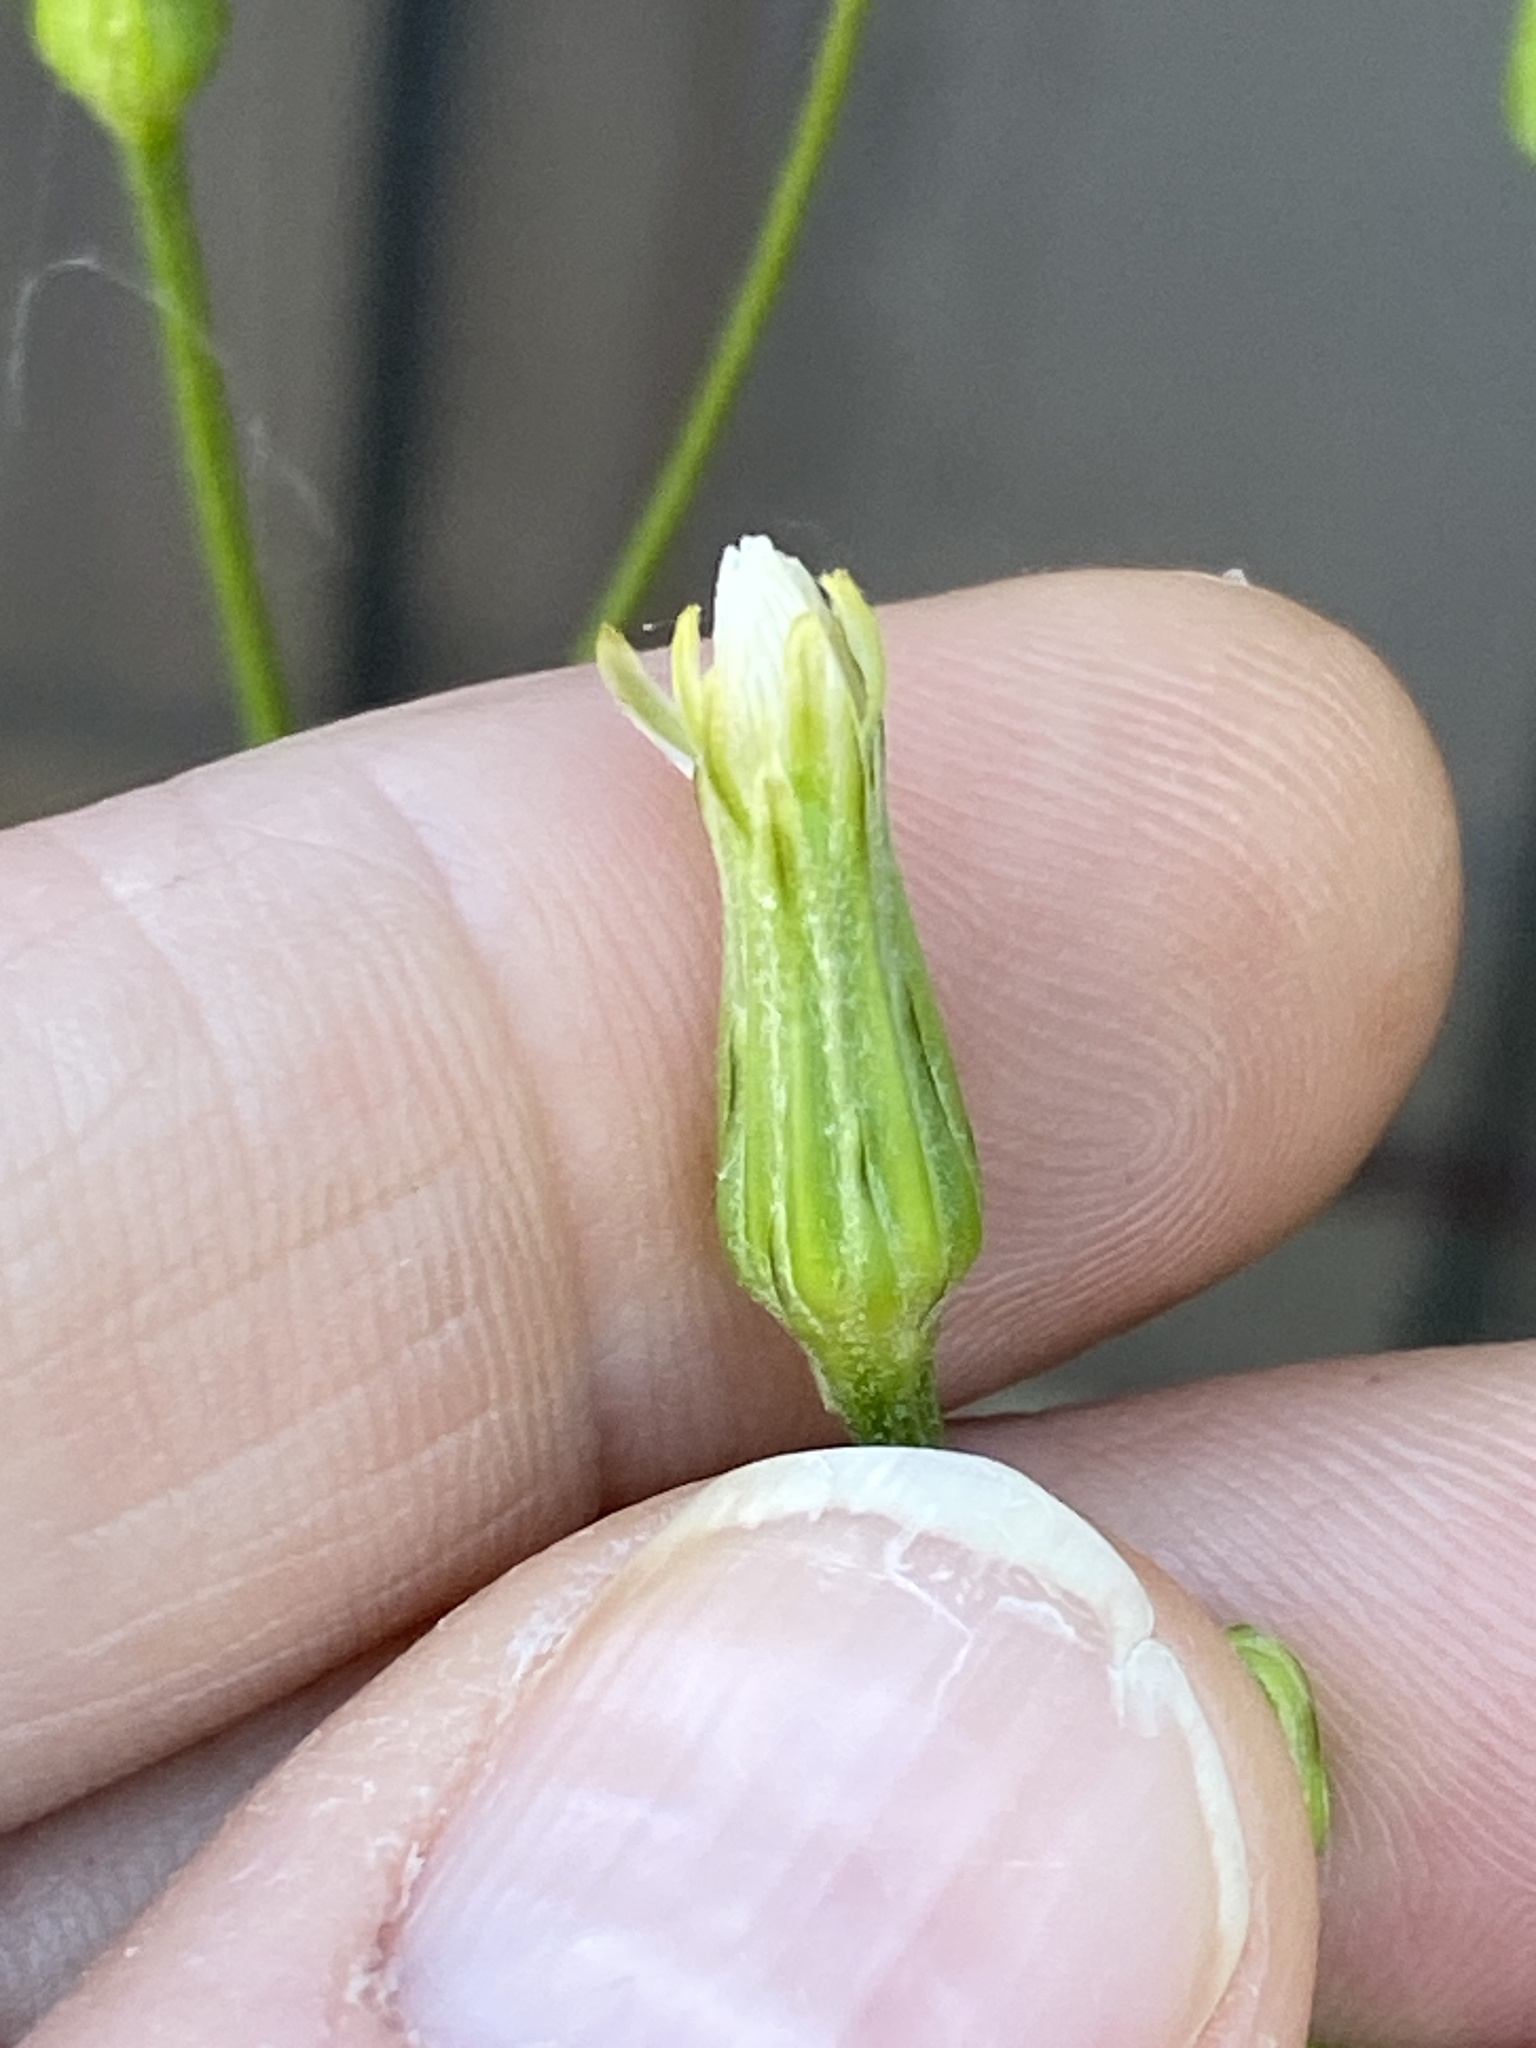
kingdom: Plantae
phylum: Tracheophyta
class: Magnoliopsida
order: Asterales
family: Asteraceae
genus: Hypochaeris
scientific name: Hypochaeris albiflora
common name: White flatweed
